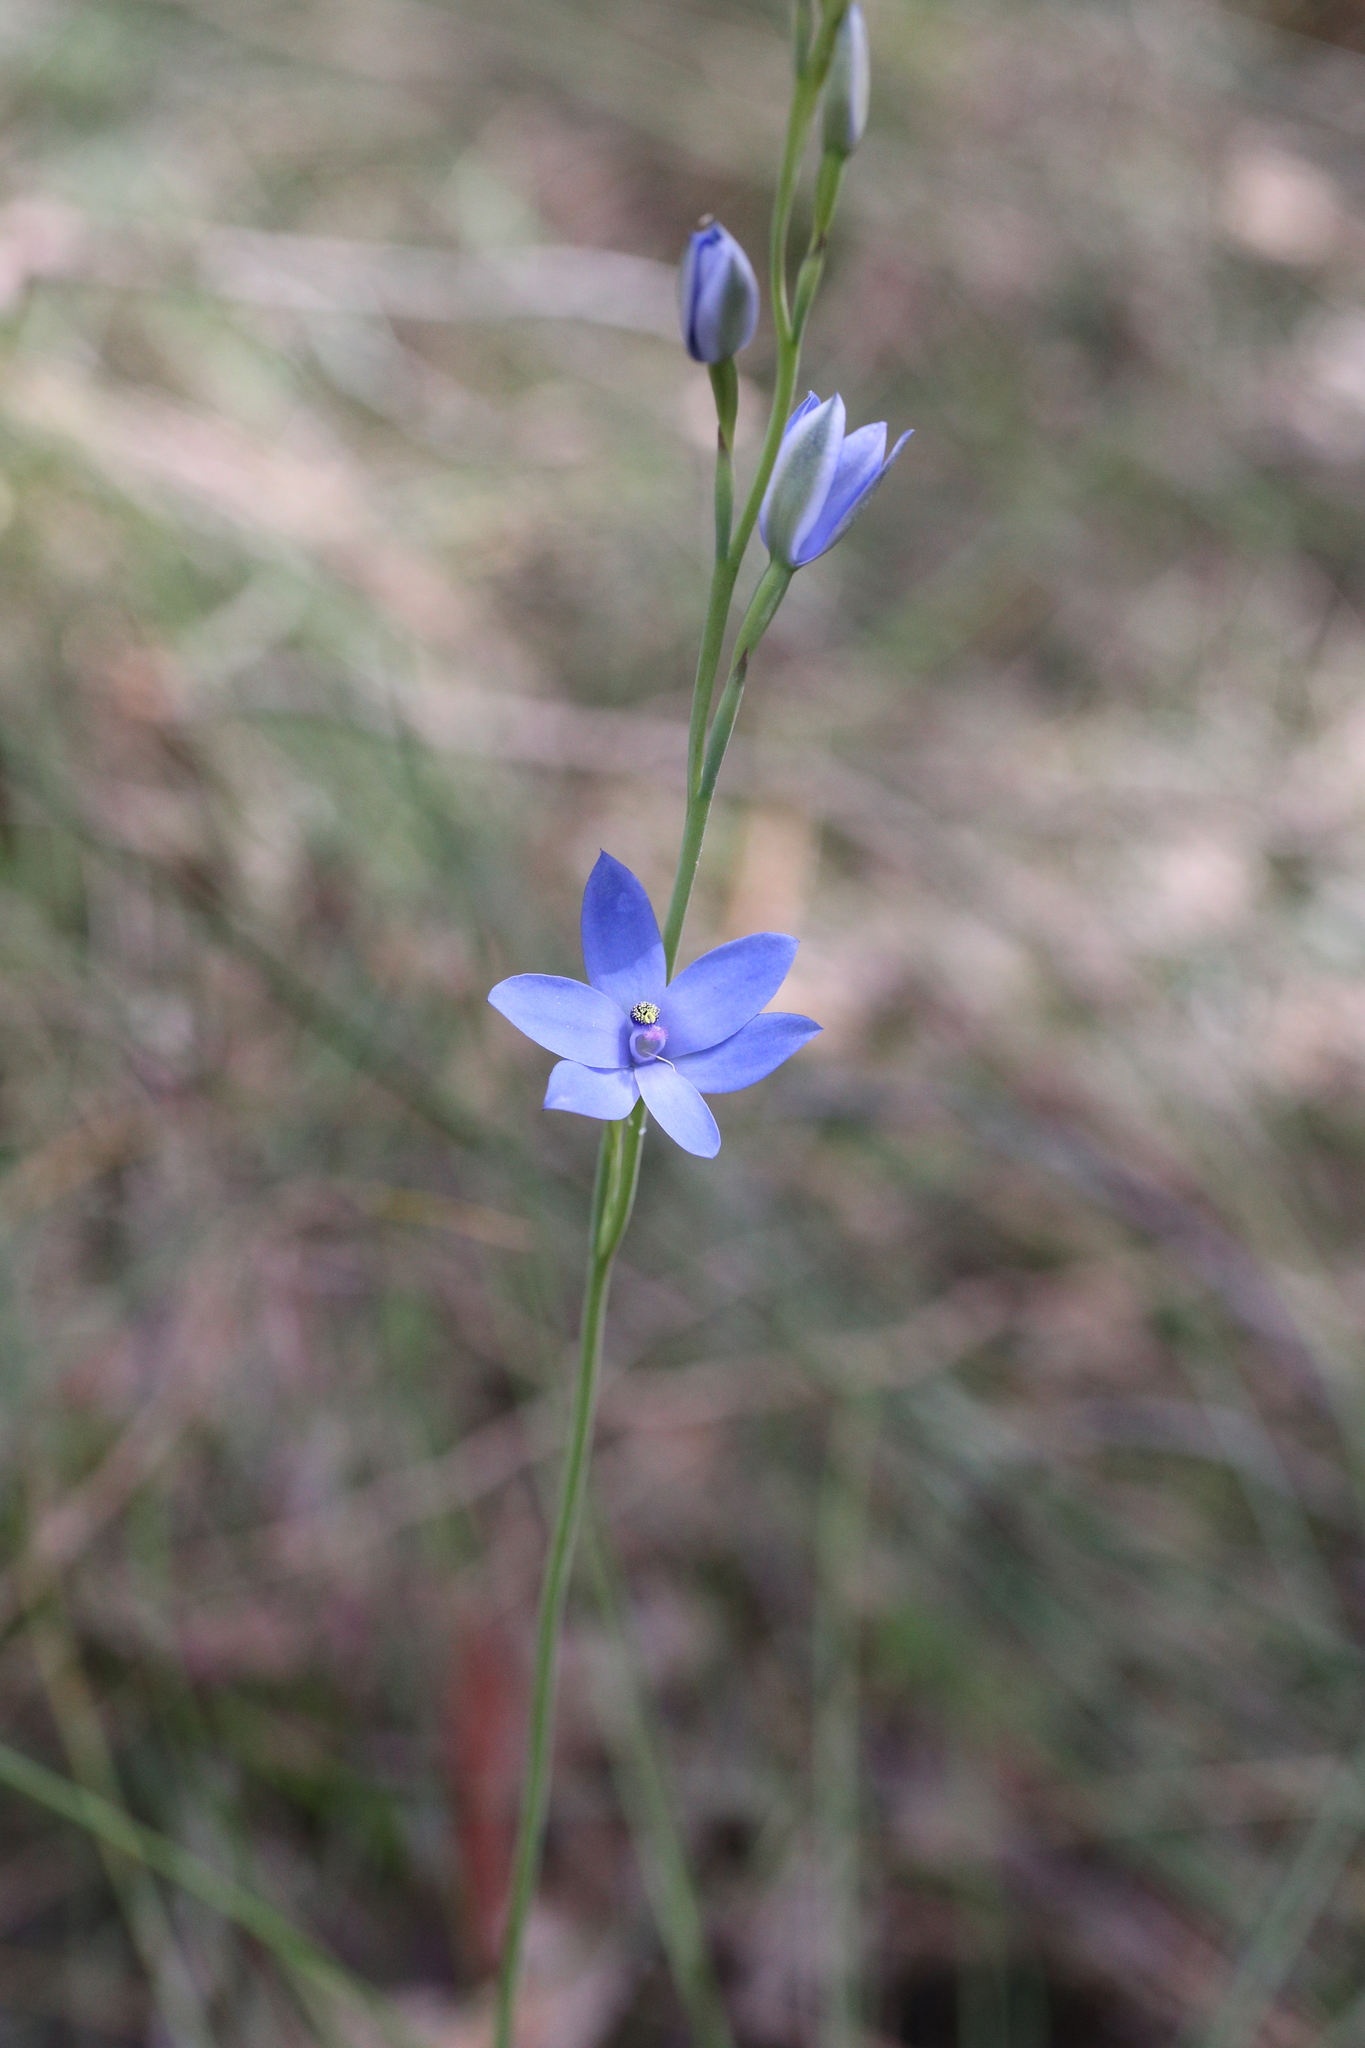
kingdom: Plantae
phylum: Tracheophyta
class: Liliopsida
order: Asparagales
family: Orchidaceae
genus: Thelymitra
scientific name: Thelymitra crinita
